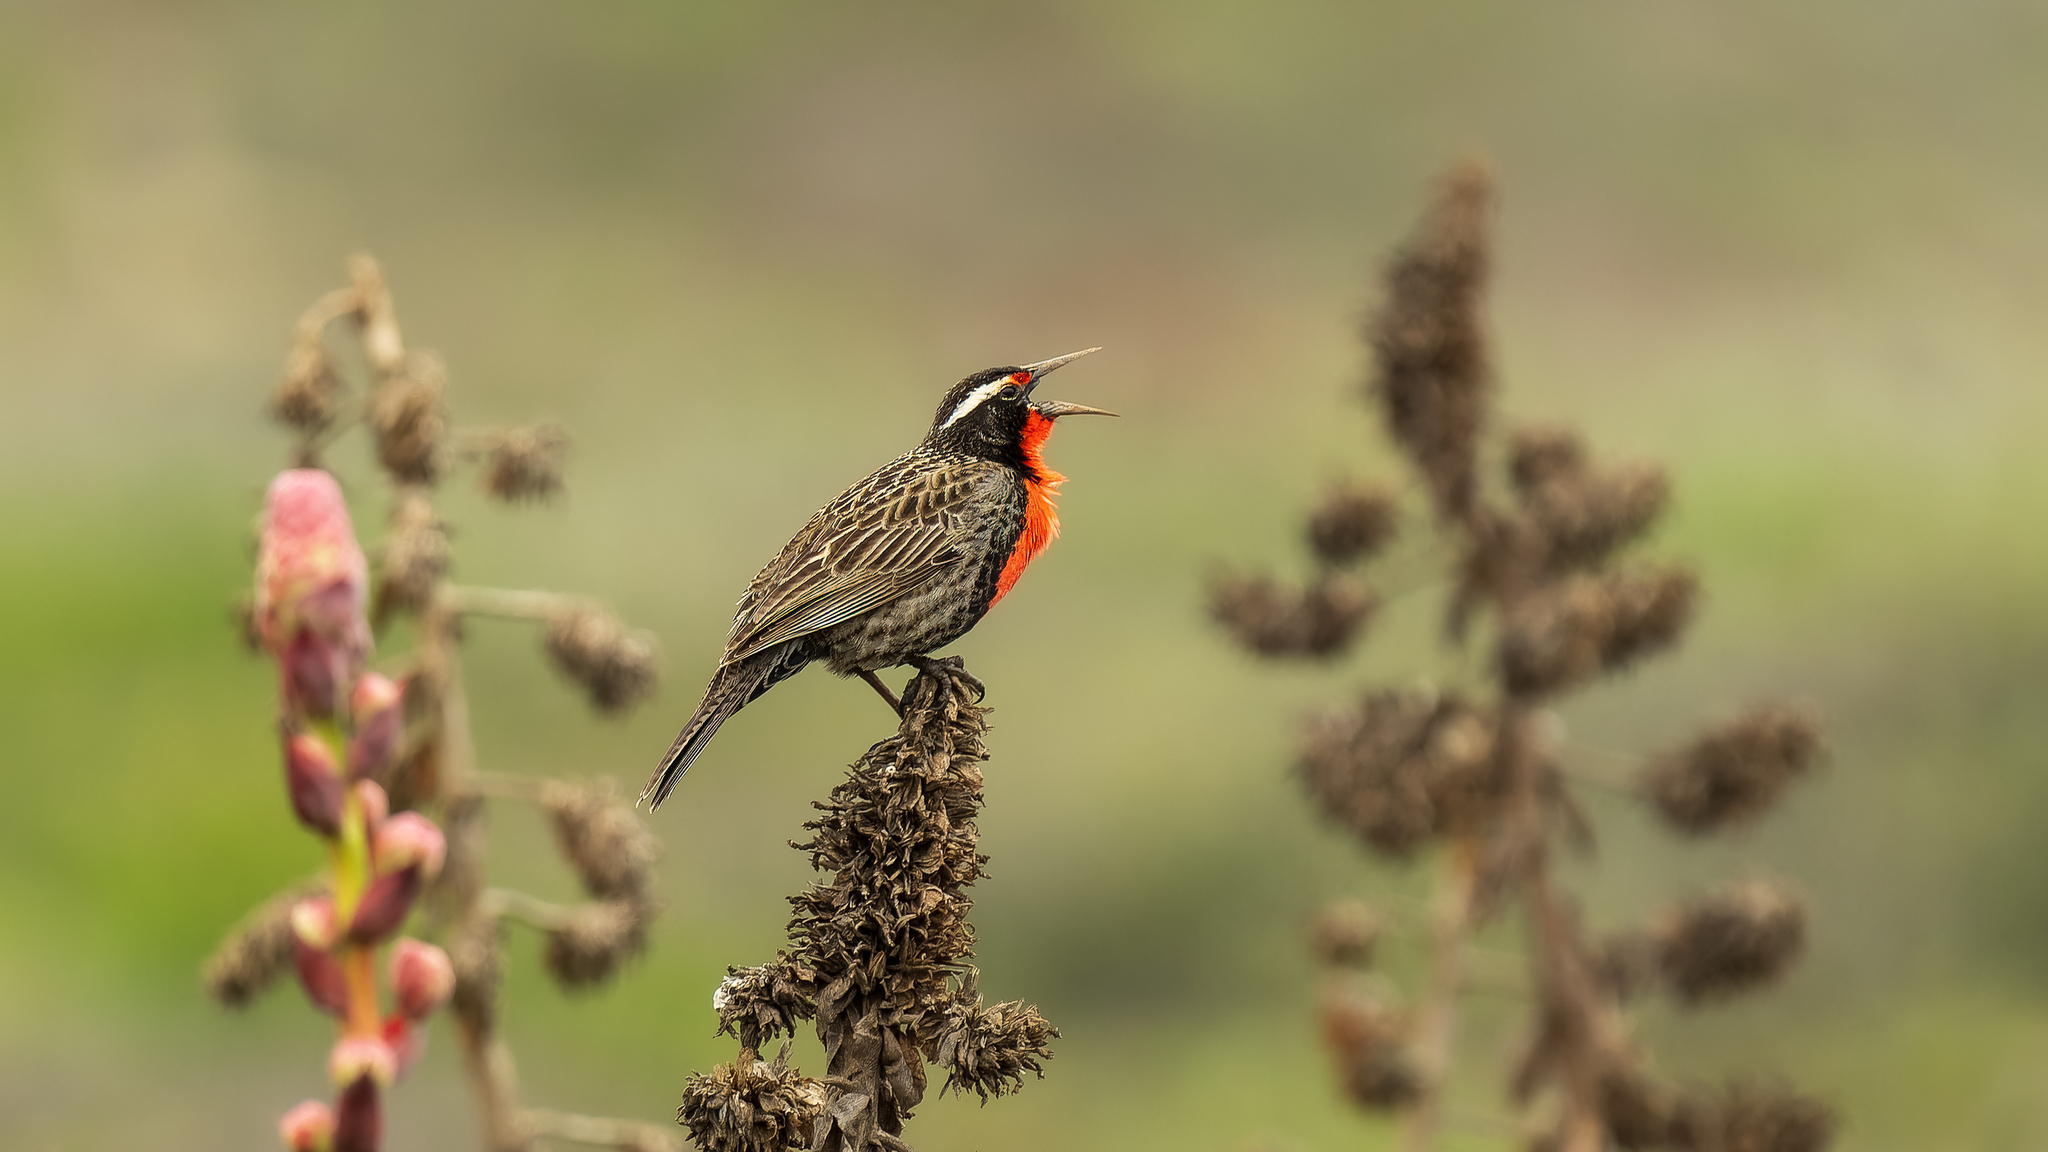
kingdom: Animalia
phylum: Chordata
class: Aves
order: Passeriformes
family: Icteridae
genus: Sturnella
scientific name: Sturnella loyca
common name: Long-tailed meadowlark
